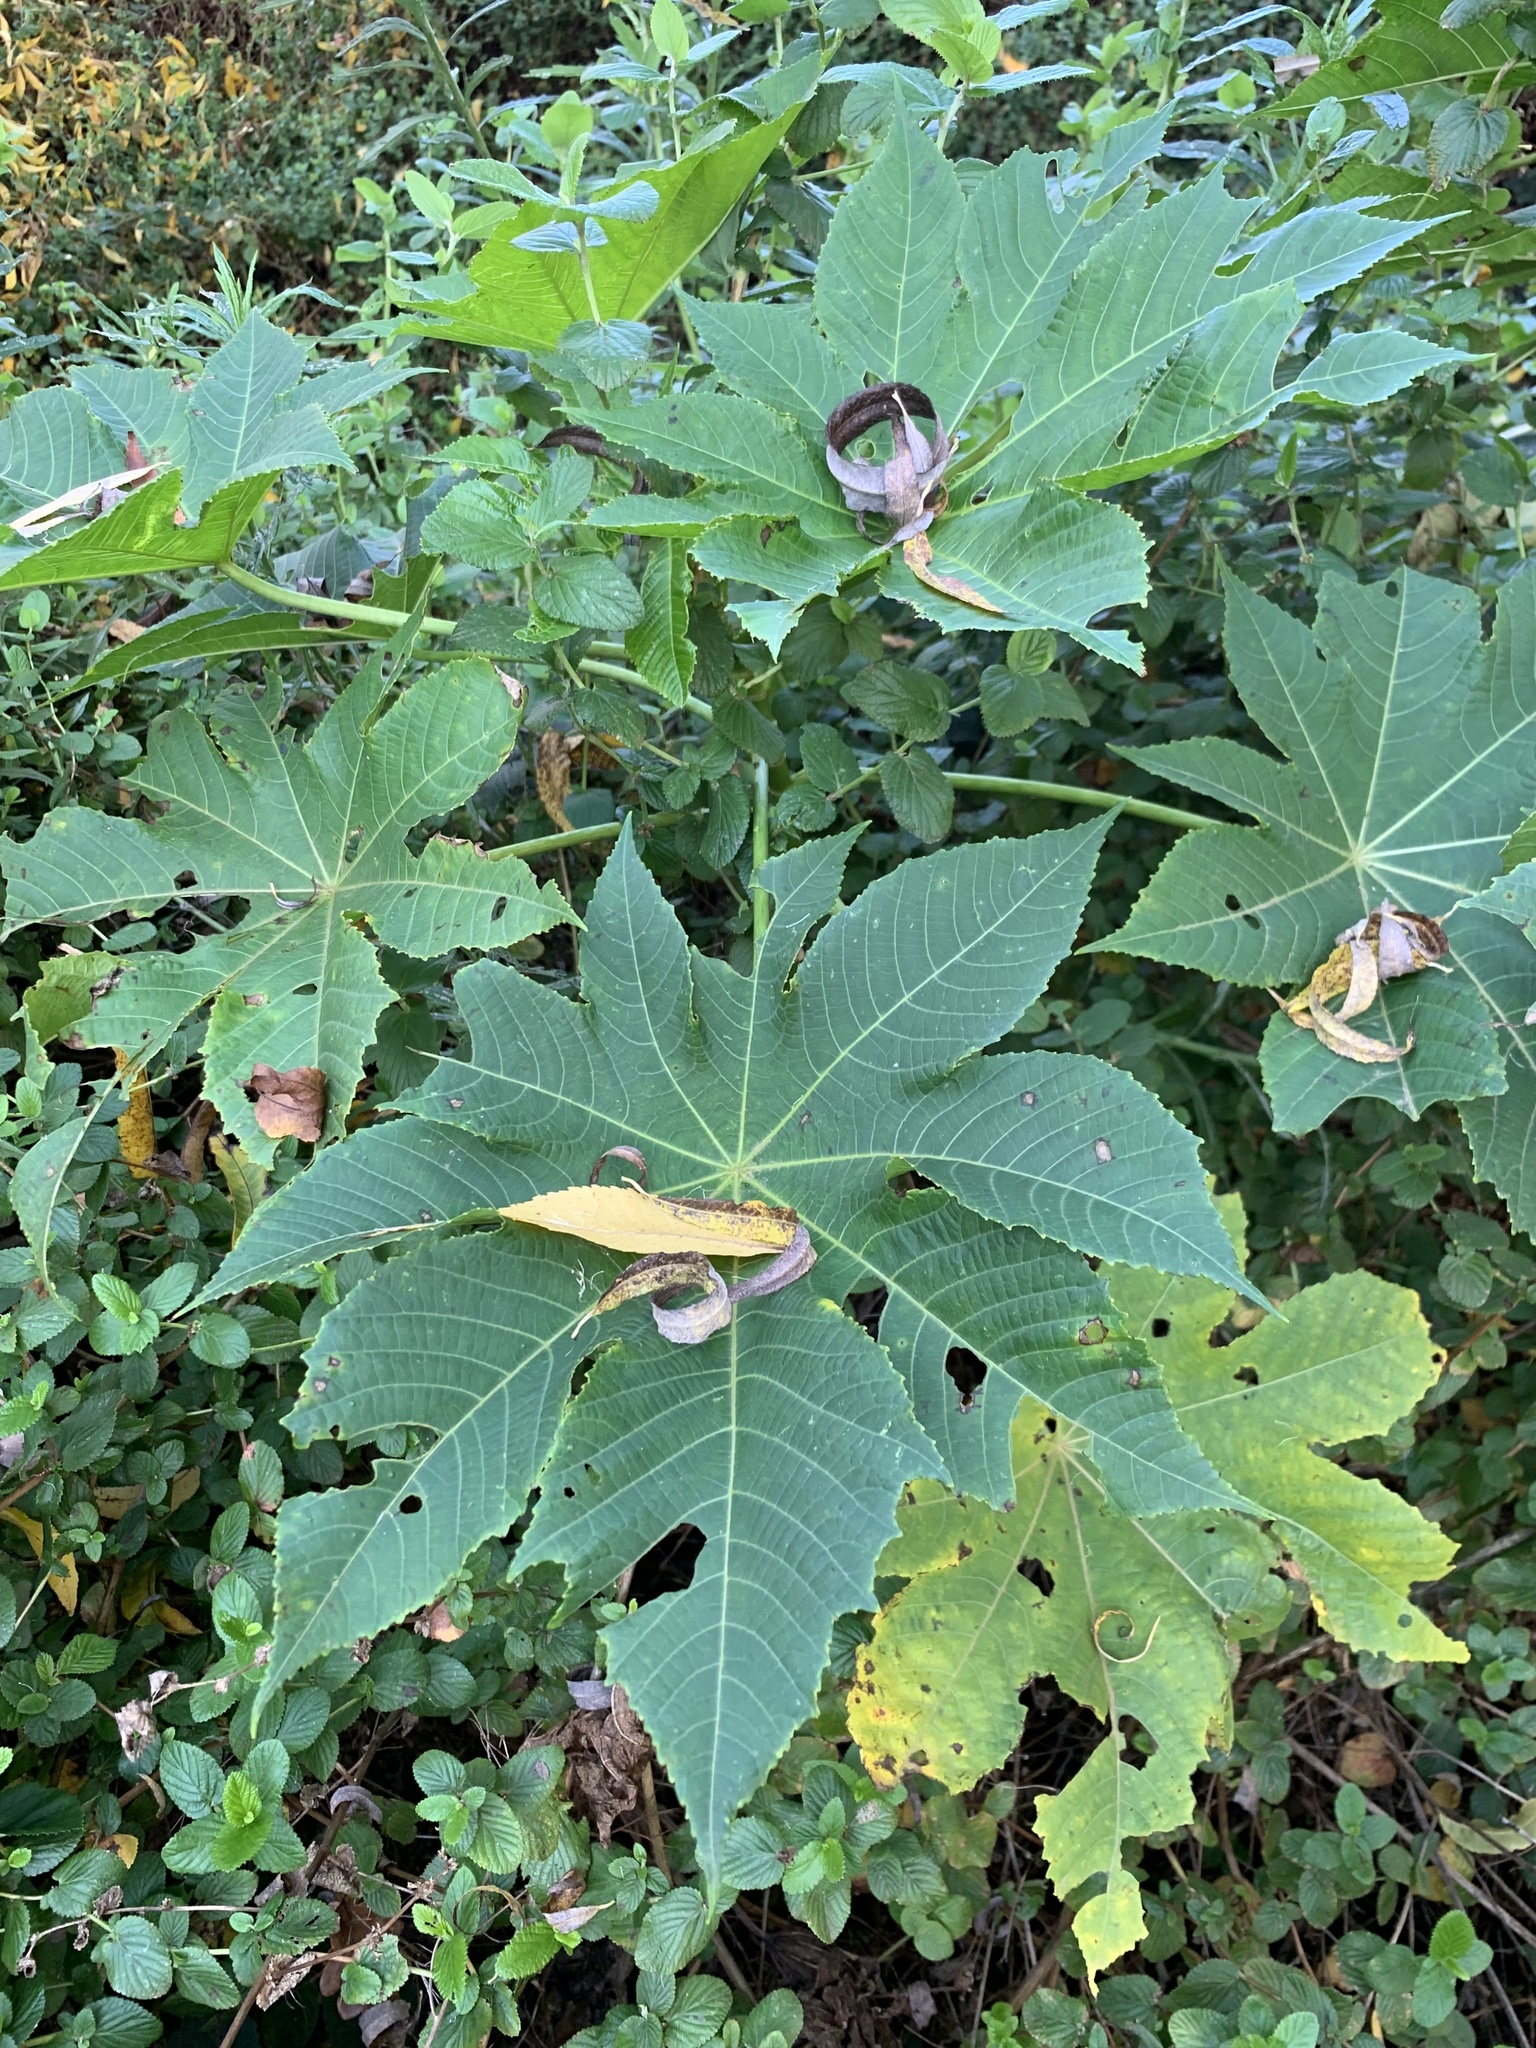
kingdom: Plantae
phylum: Tracheophyta
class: Magnoliopsida
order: Malpighiales
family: Euphorbiaceae
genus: Ricinus
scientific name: Ricinus communis
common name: Castor-oil-plant
